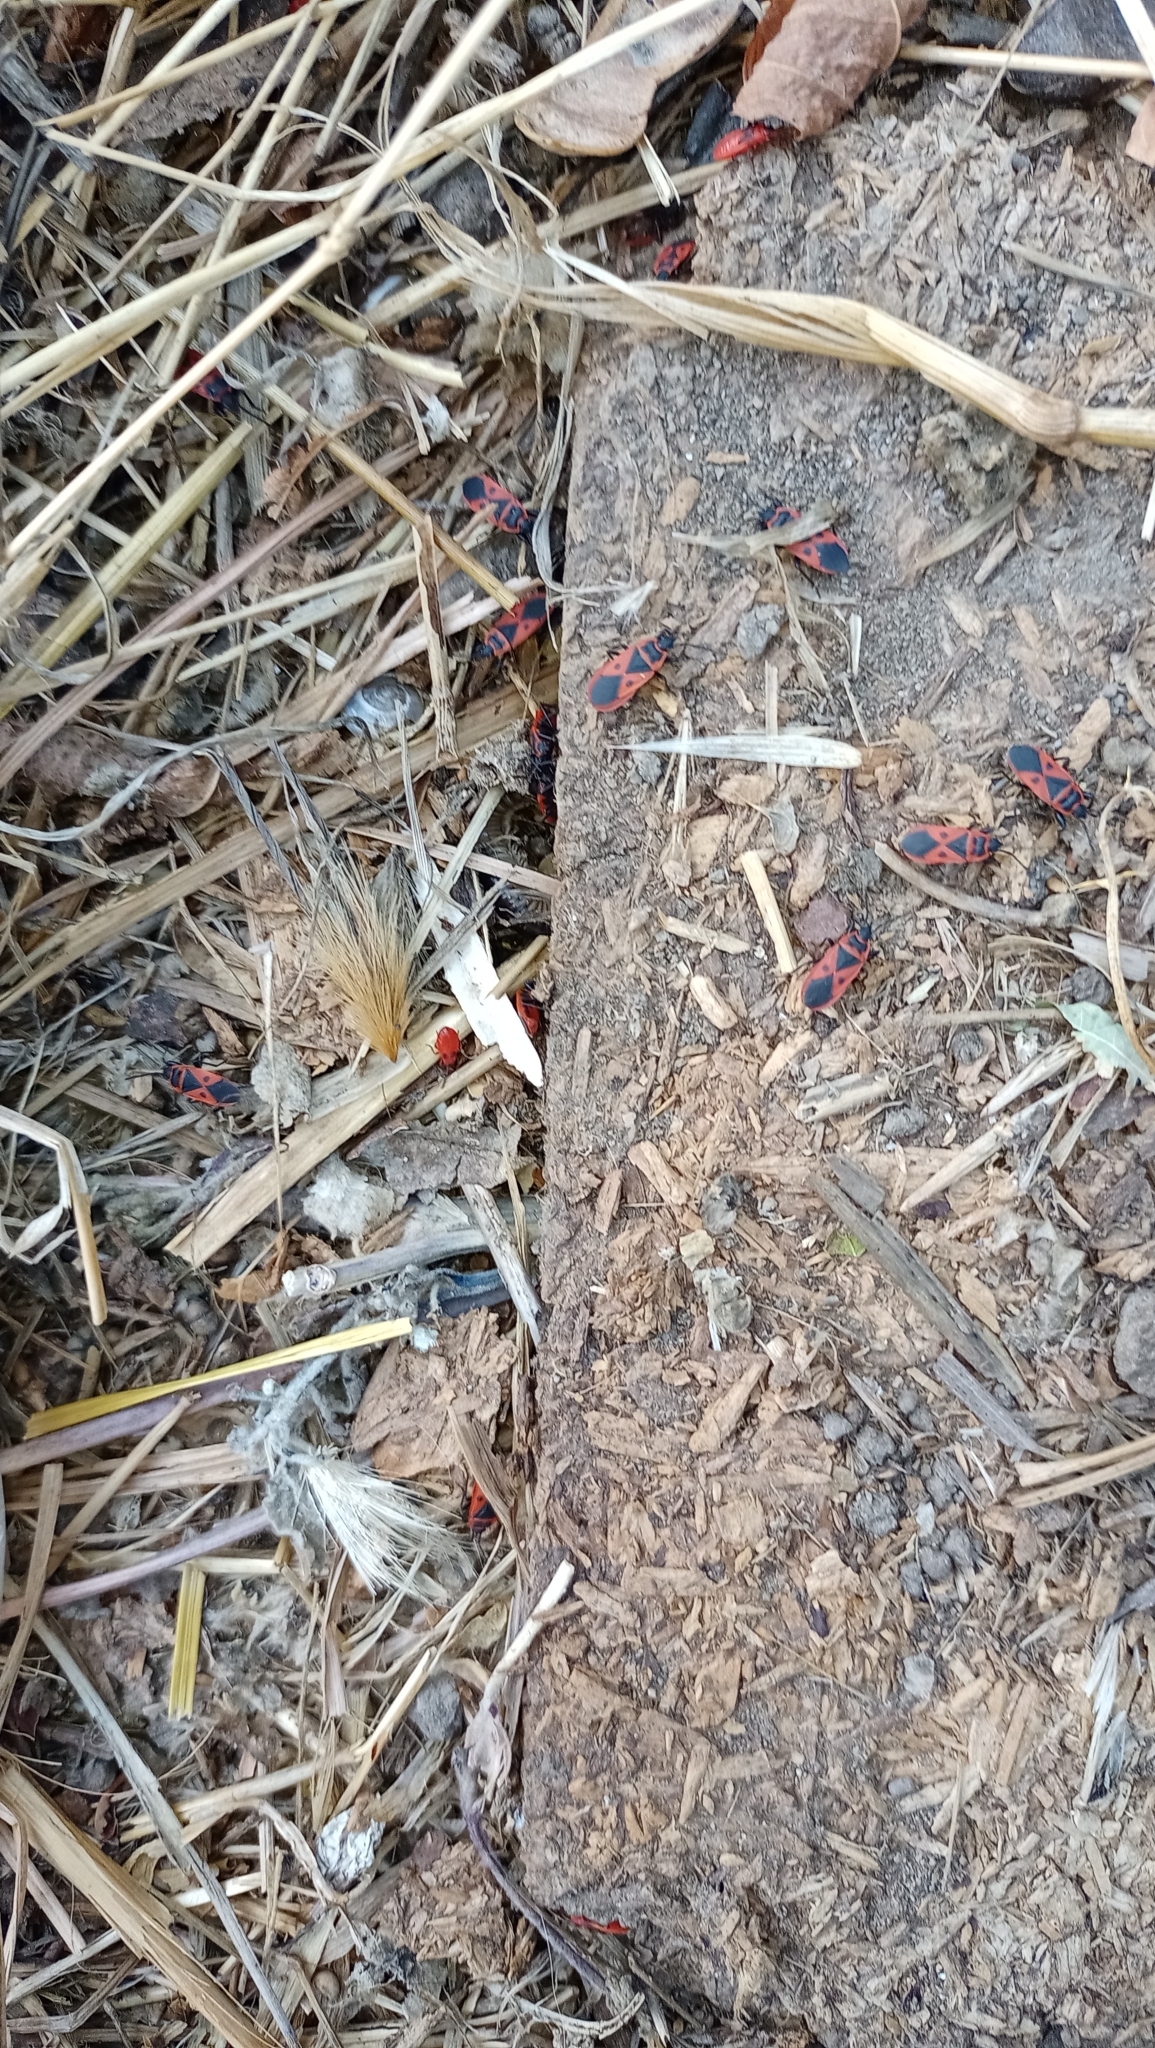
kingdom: Animalia
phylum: Arthropoda
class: Insecta
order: Hemiptera
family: Pyrrhocoridae
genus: Scantius
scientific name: Scantius aegyptius
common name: Red bug
